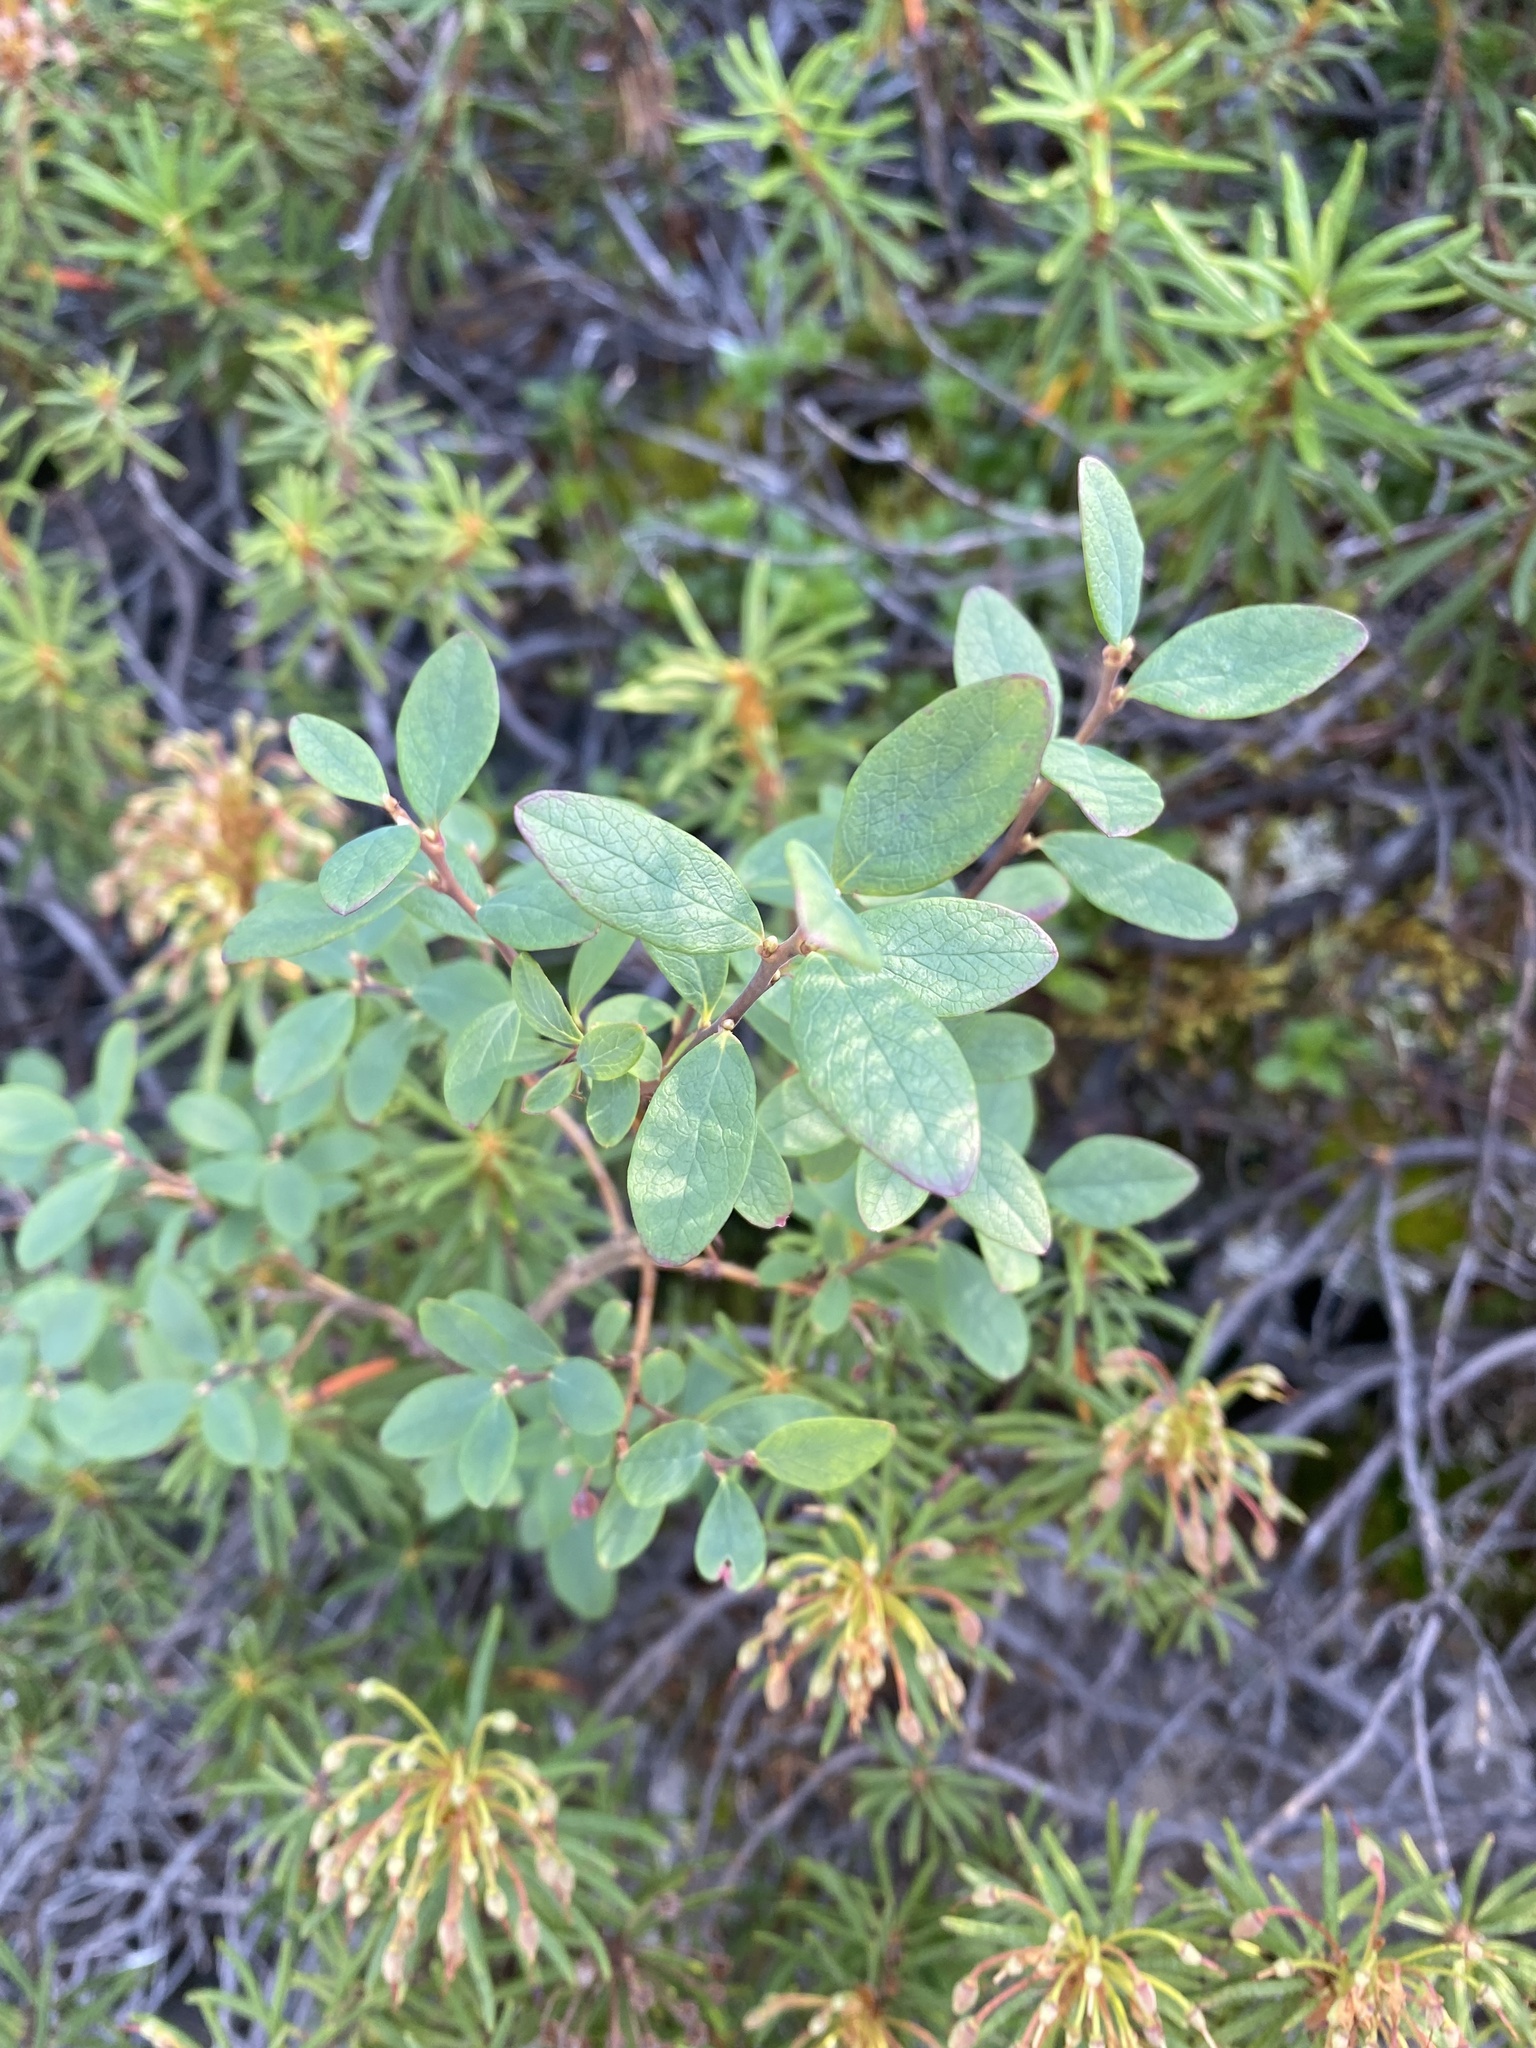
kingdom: Plantae
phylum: Tracheophyta
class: Magnoliopsida
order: Ericales
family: Ericaceae
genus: Vaccinium
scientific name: Vaccinium uliginosum
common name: Bog bilberry
